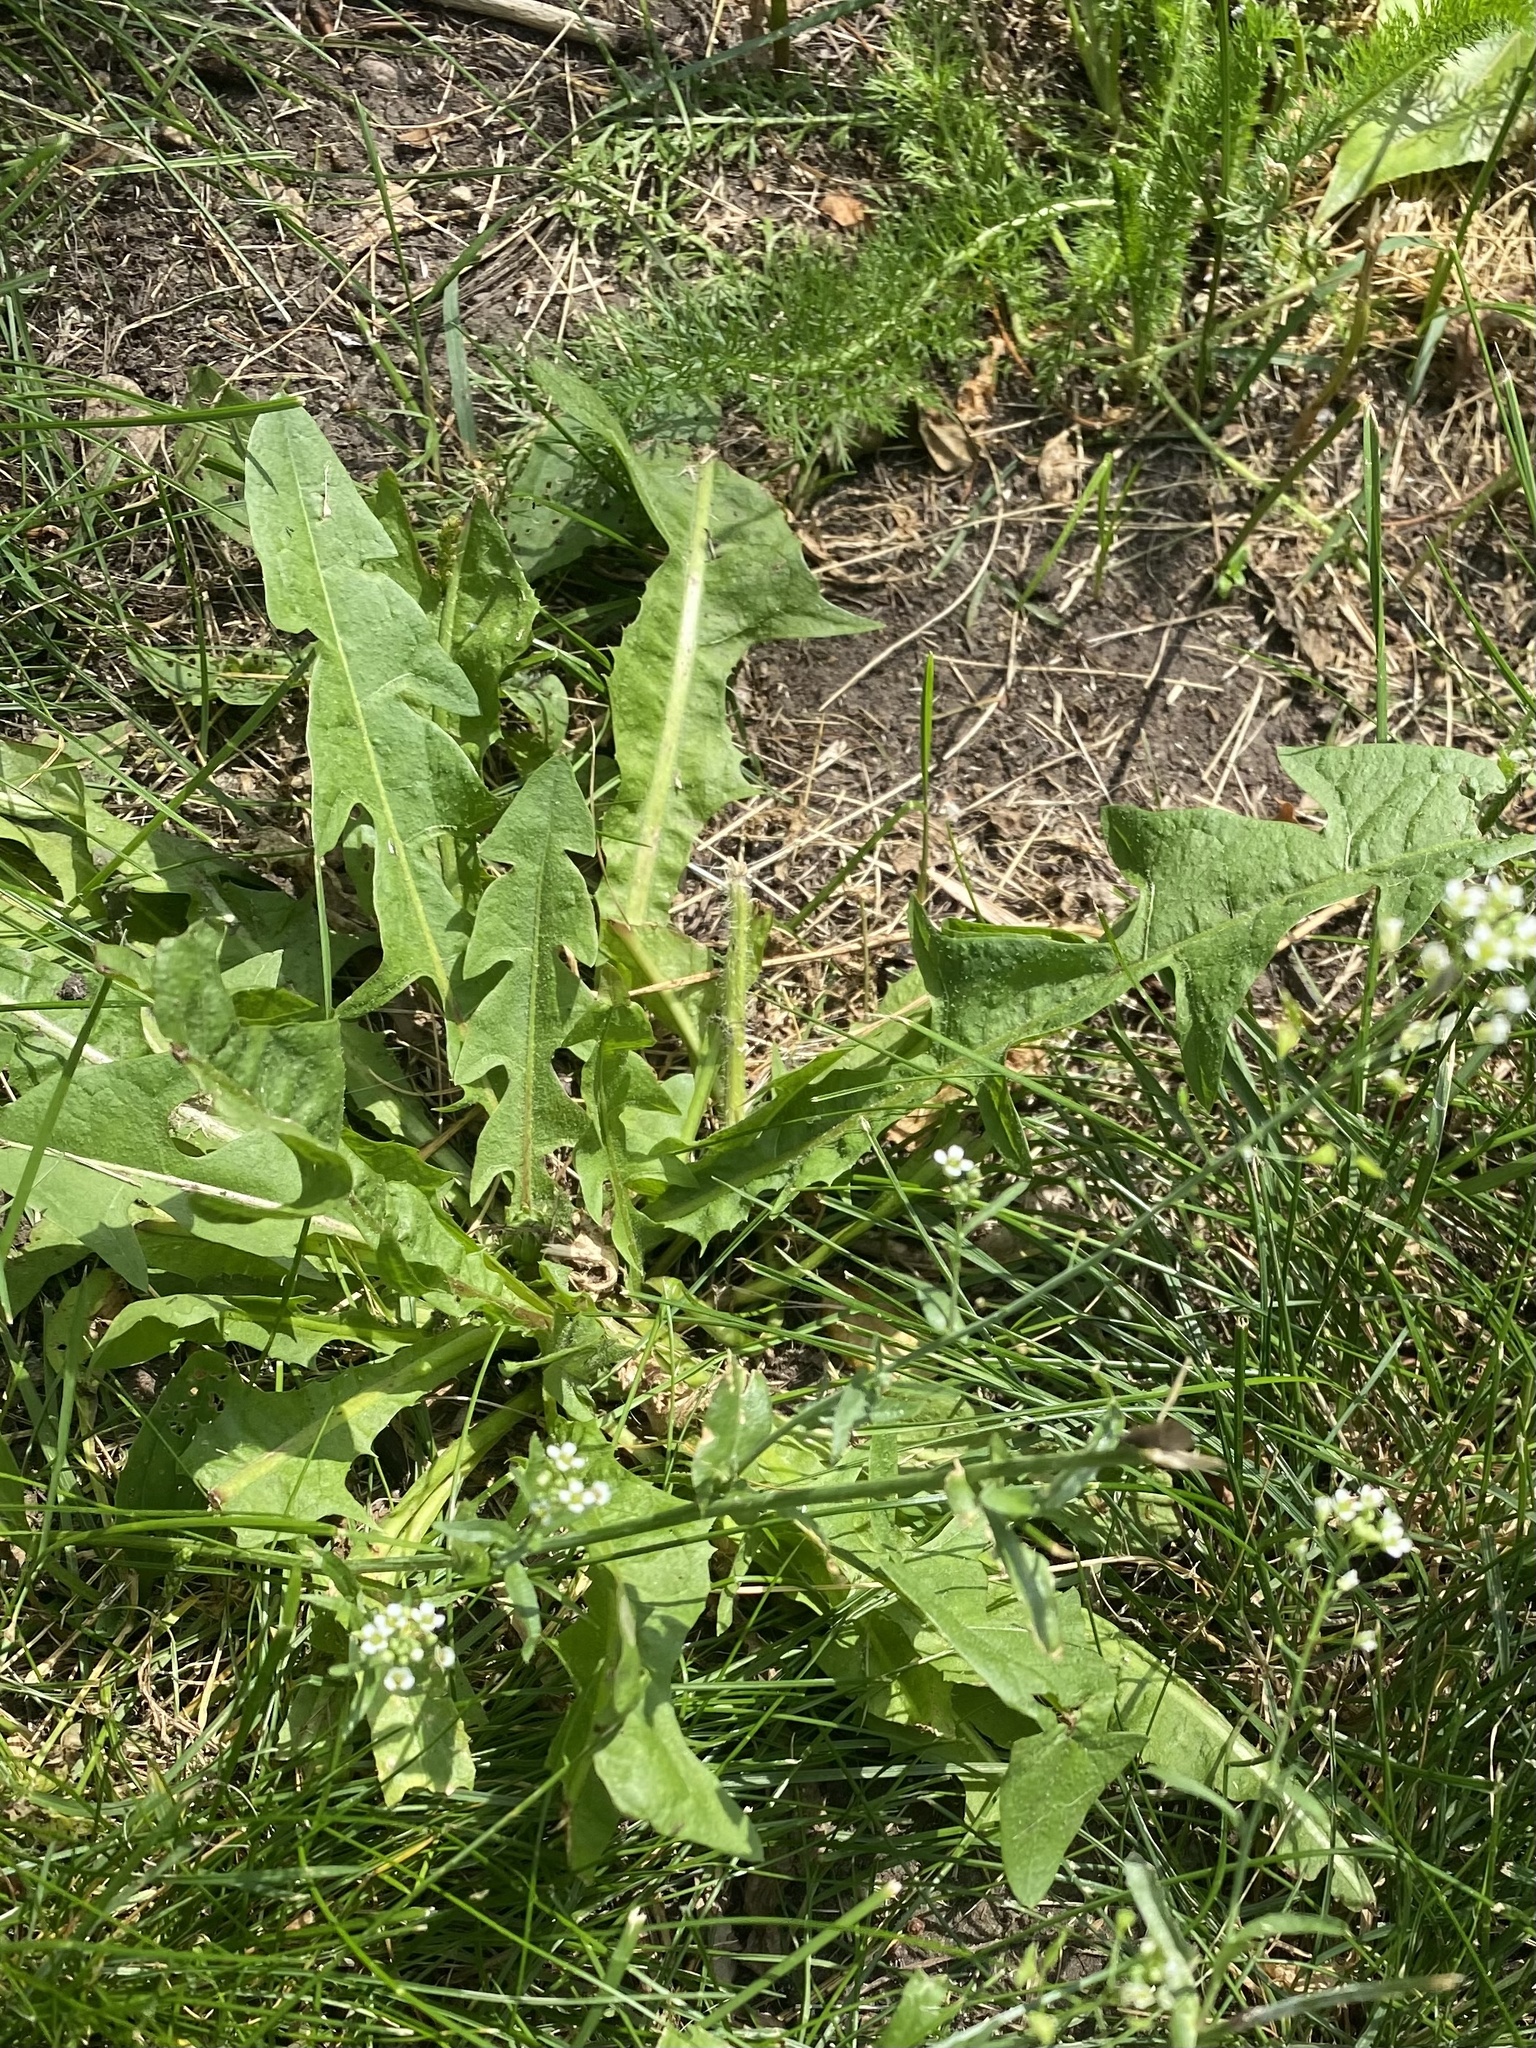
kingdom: Plantae
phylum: Tracheophyta
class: Magnoliopsida
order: Asterales
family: Asteraceae
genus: Taraxacum
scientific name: Taraxacum officinale
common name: Common dandelion
